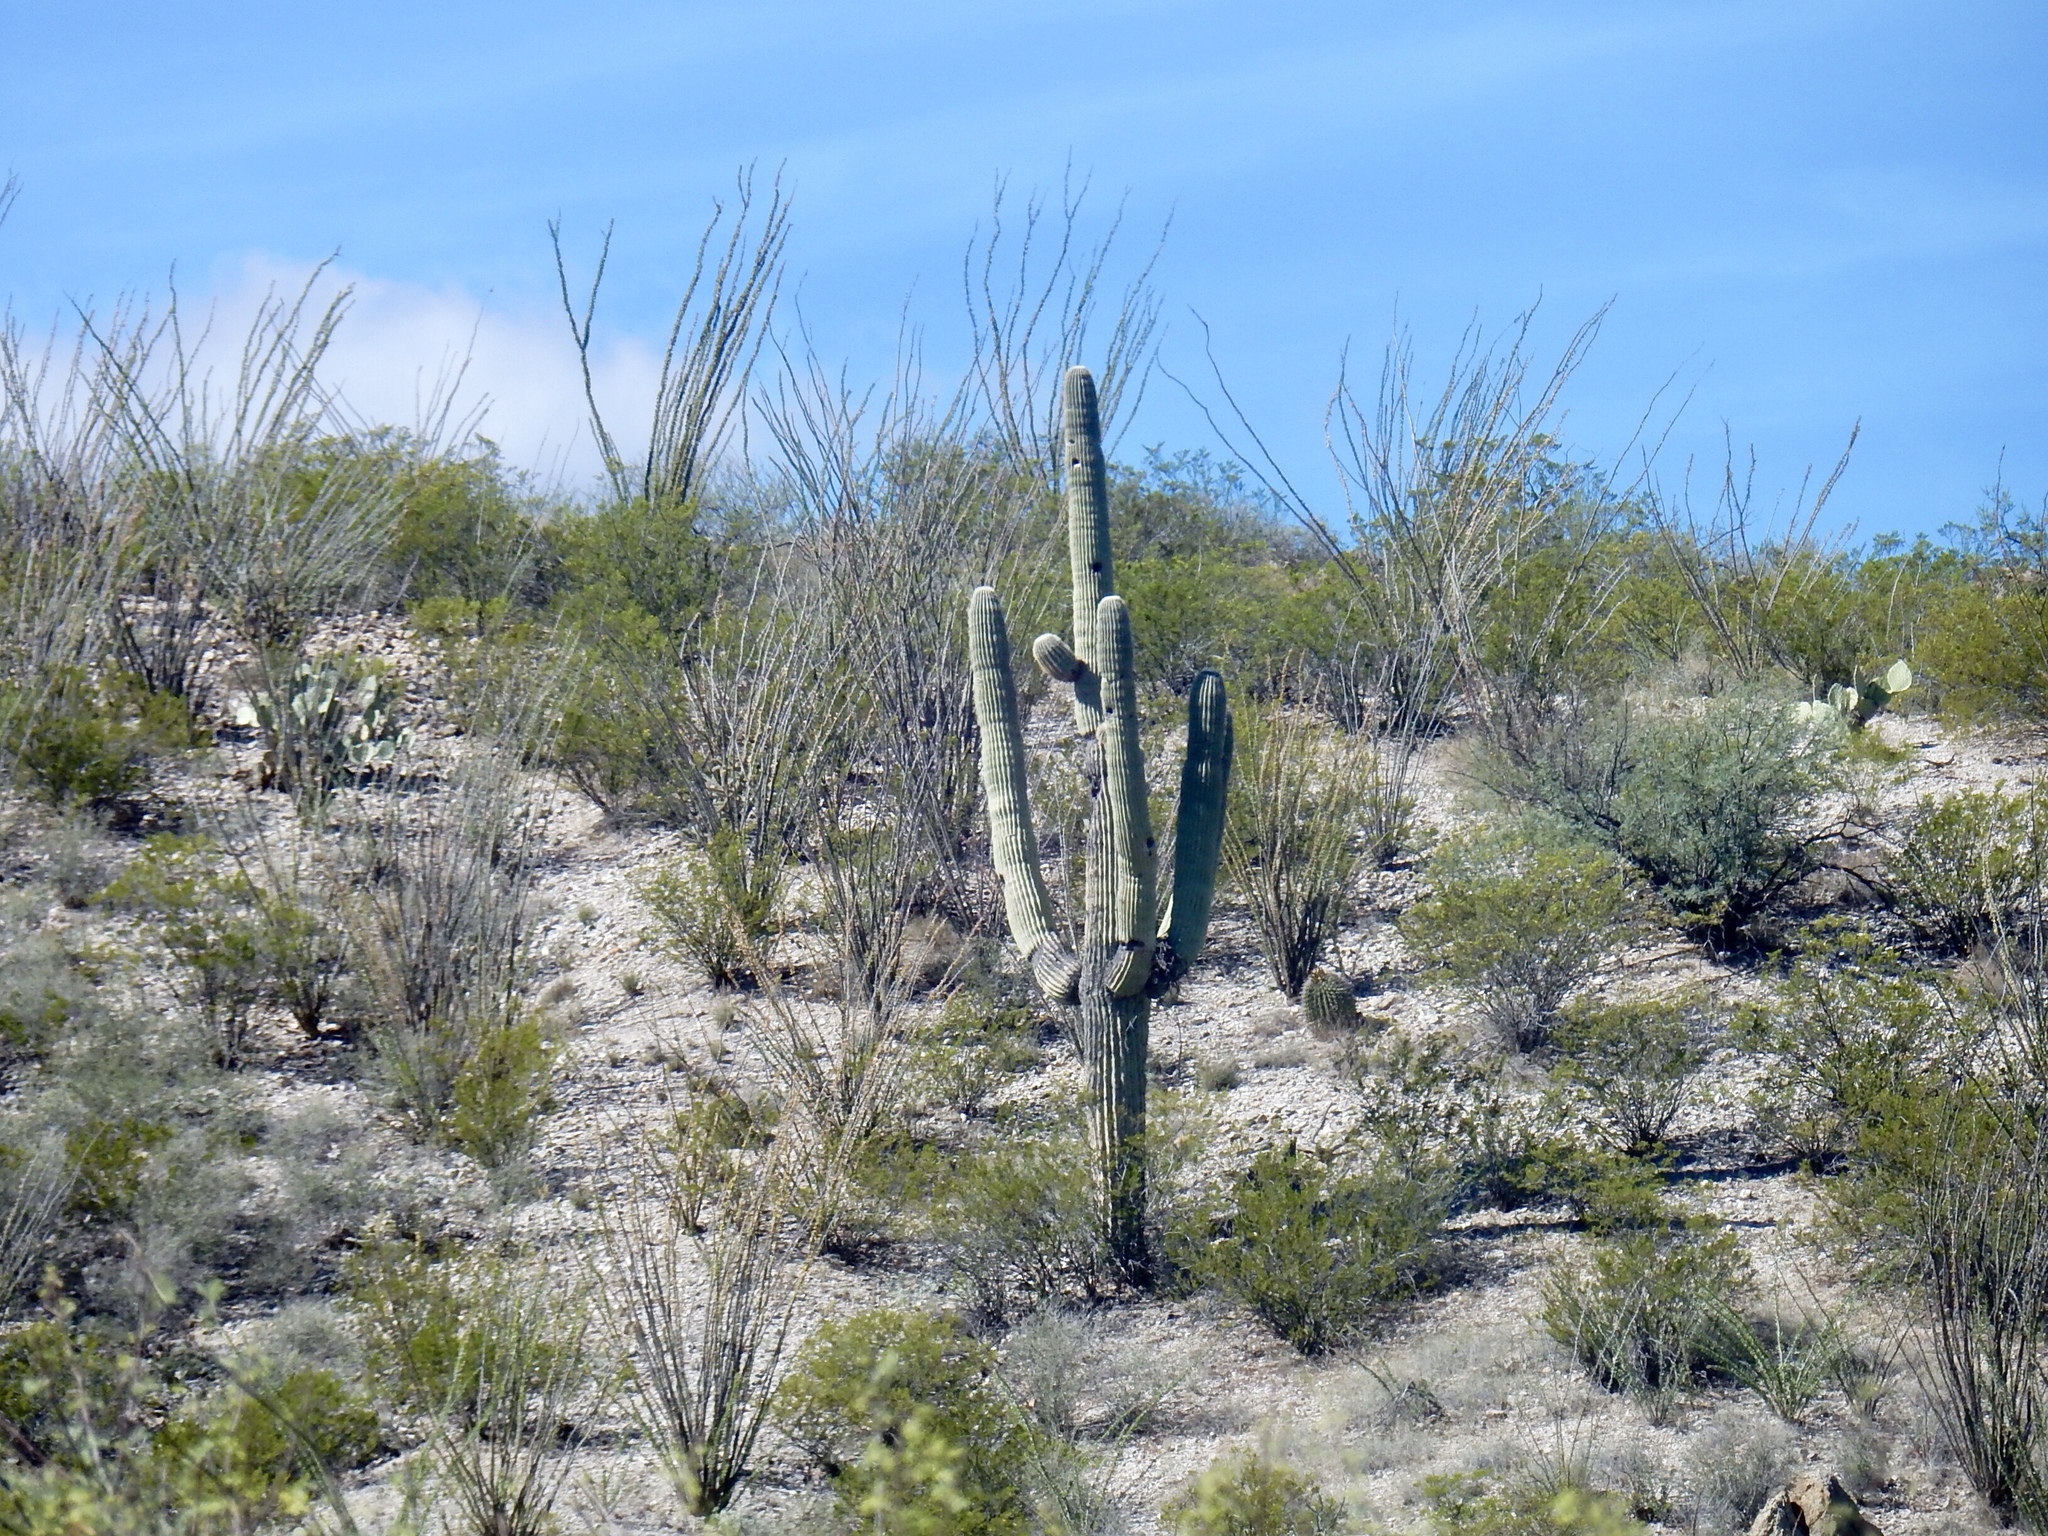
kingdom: Plantae
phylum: Tracheophyta
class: Magnoliopsida
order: Caryophyllales
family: Cactaceae
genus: Carnegiea
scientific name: Carnegiea gigantea
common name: Saguaro
